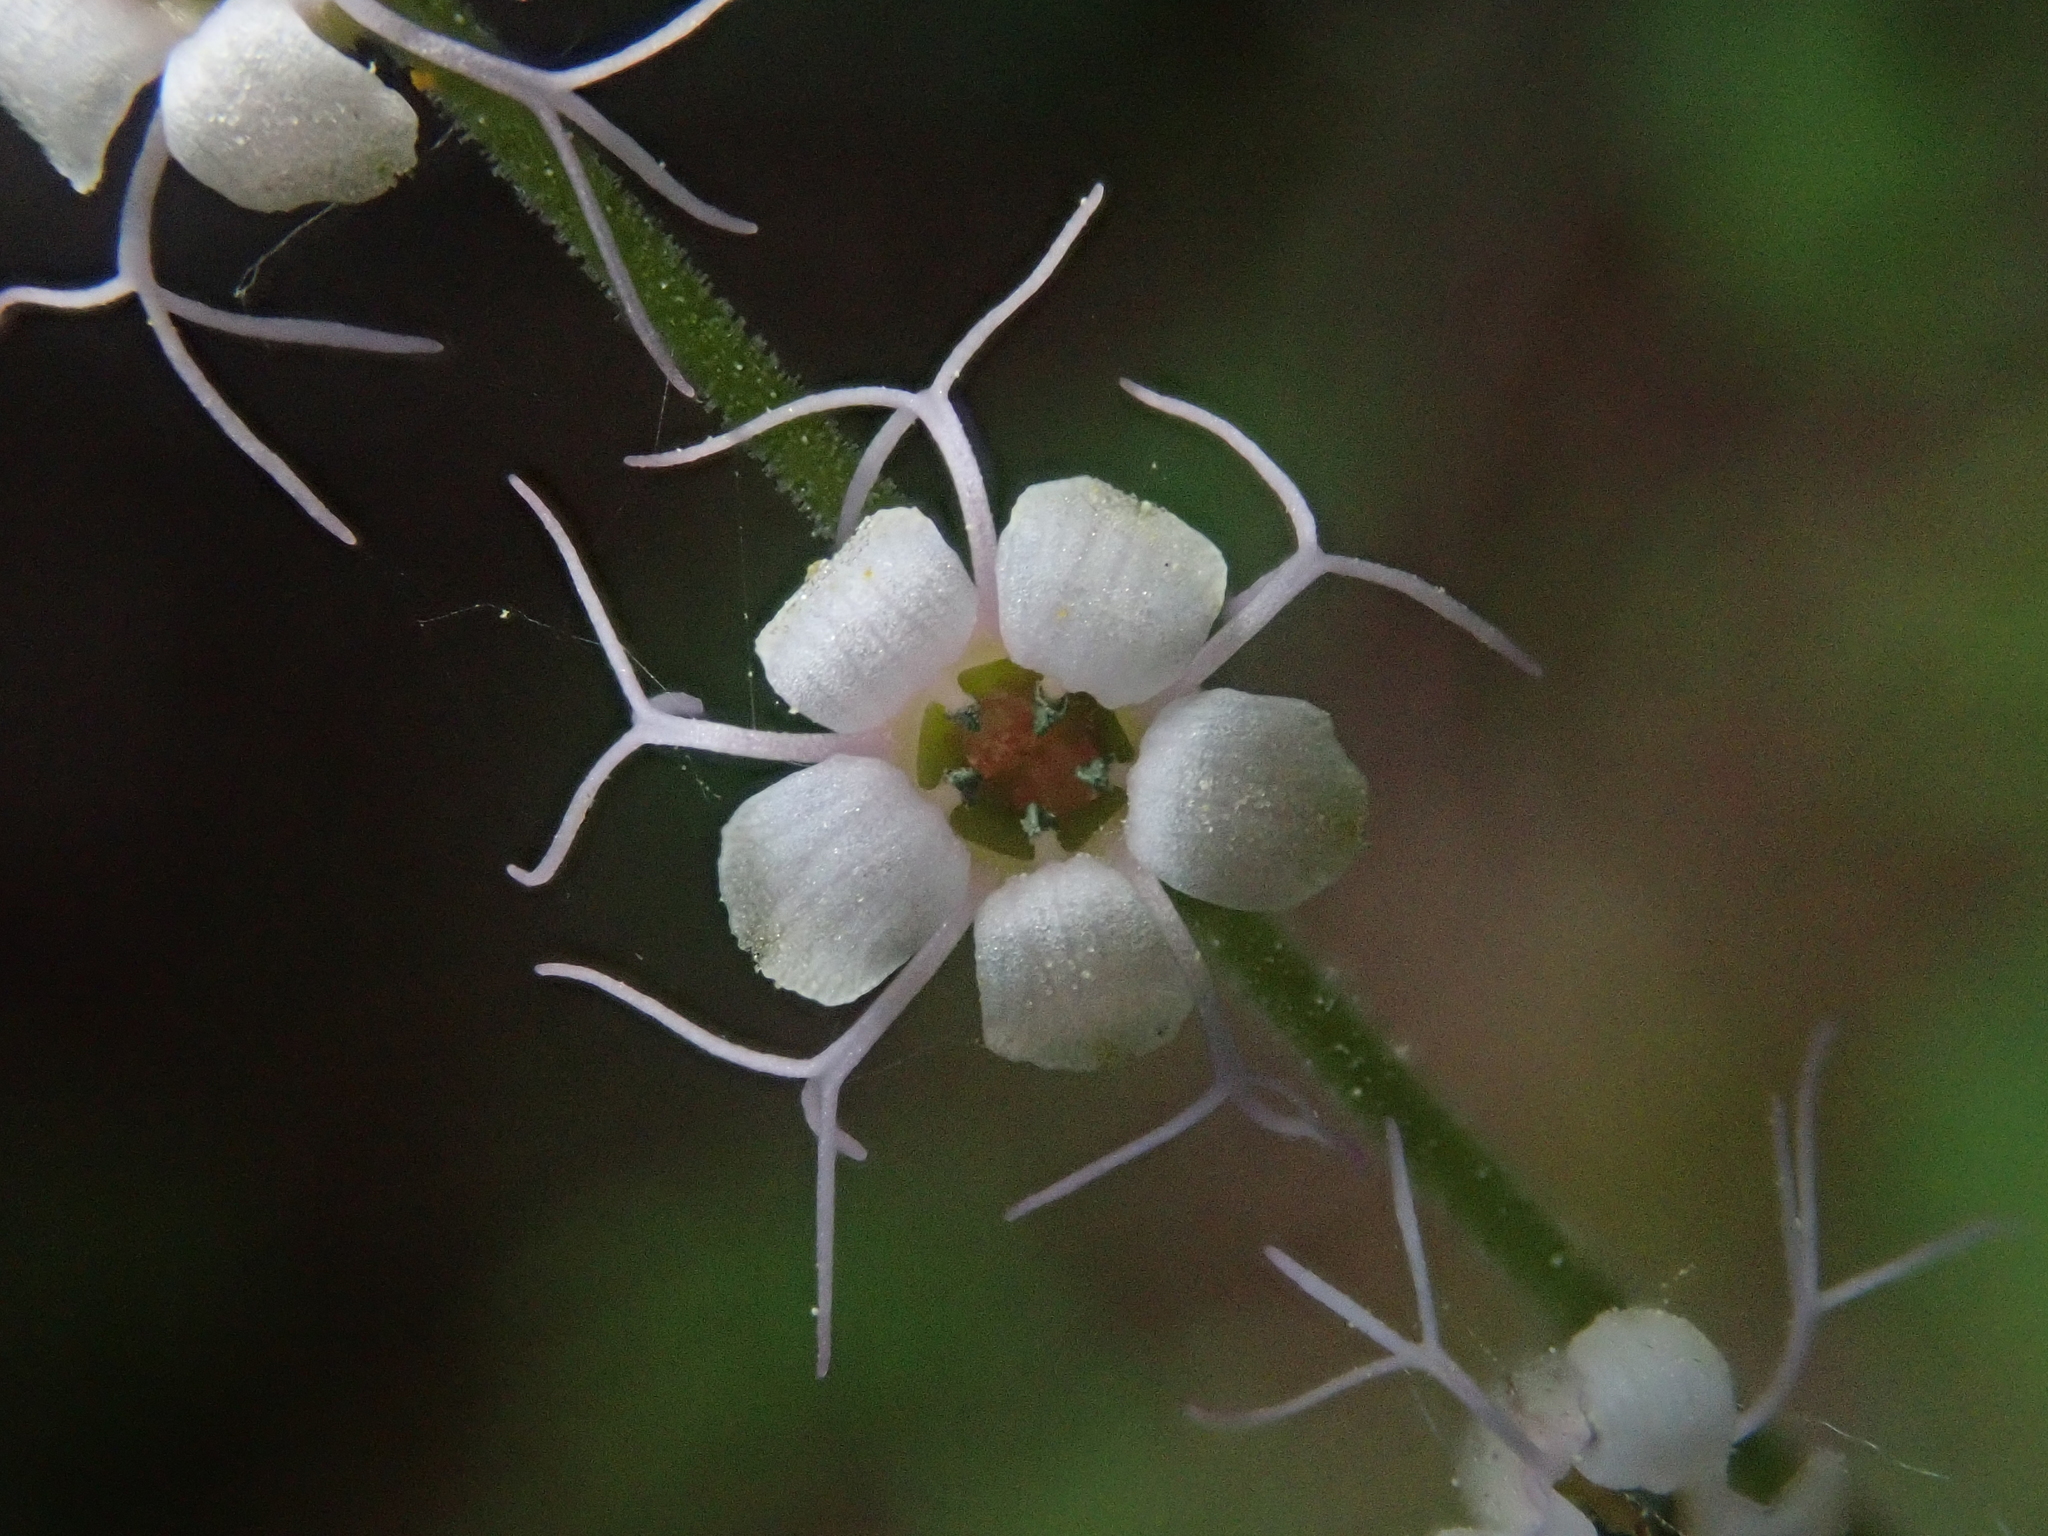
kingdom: Plantae
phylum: Tracheophyta
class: Magnoliopsida
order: Saxifragales
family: Saxifragaceae
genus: Ozomelis
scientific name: Ozomelis stauropetala
